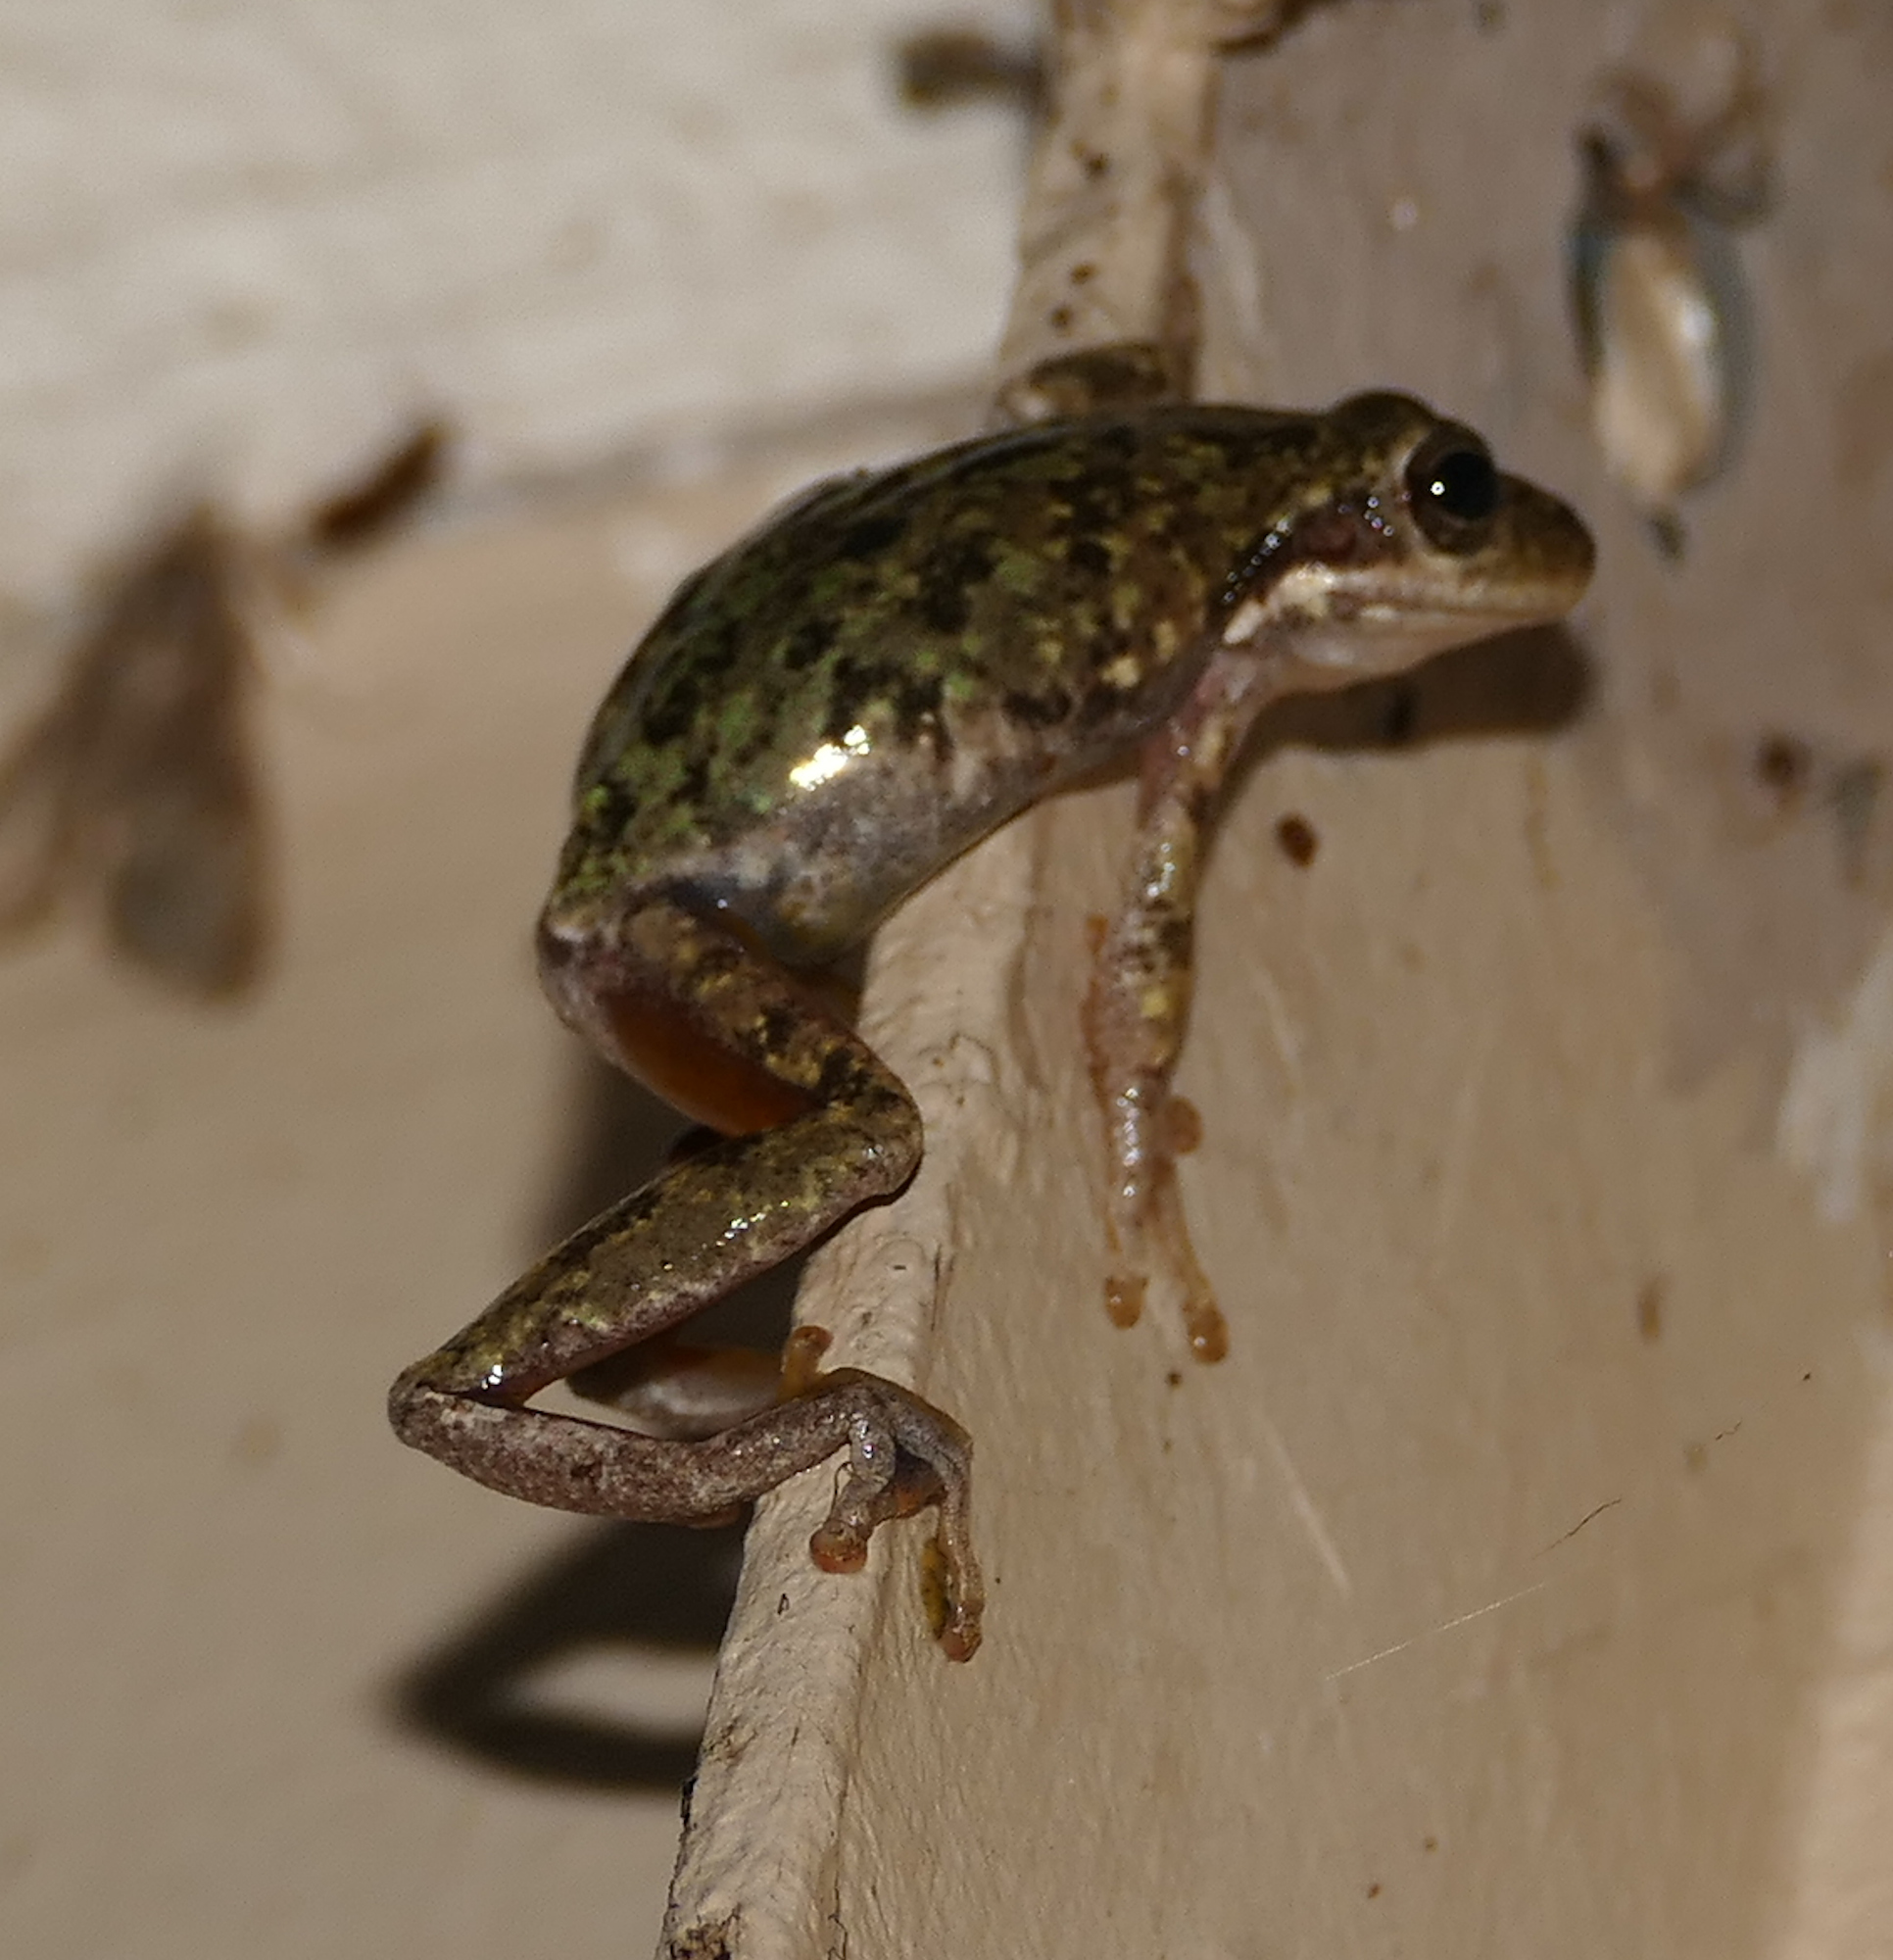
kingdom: Animalia
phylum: Chordata
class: Amphibia
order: Anura
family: Hylidae
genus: Dryophytes
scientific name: Dryophytes squirellus
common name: Squirrel treefrog
